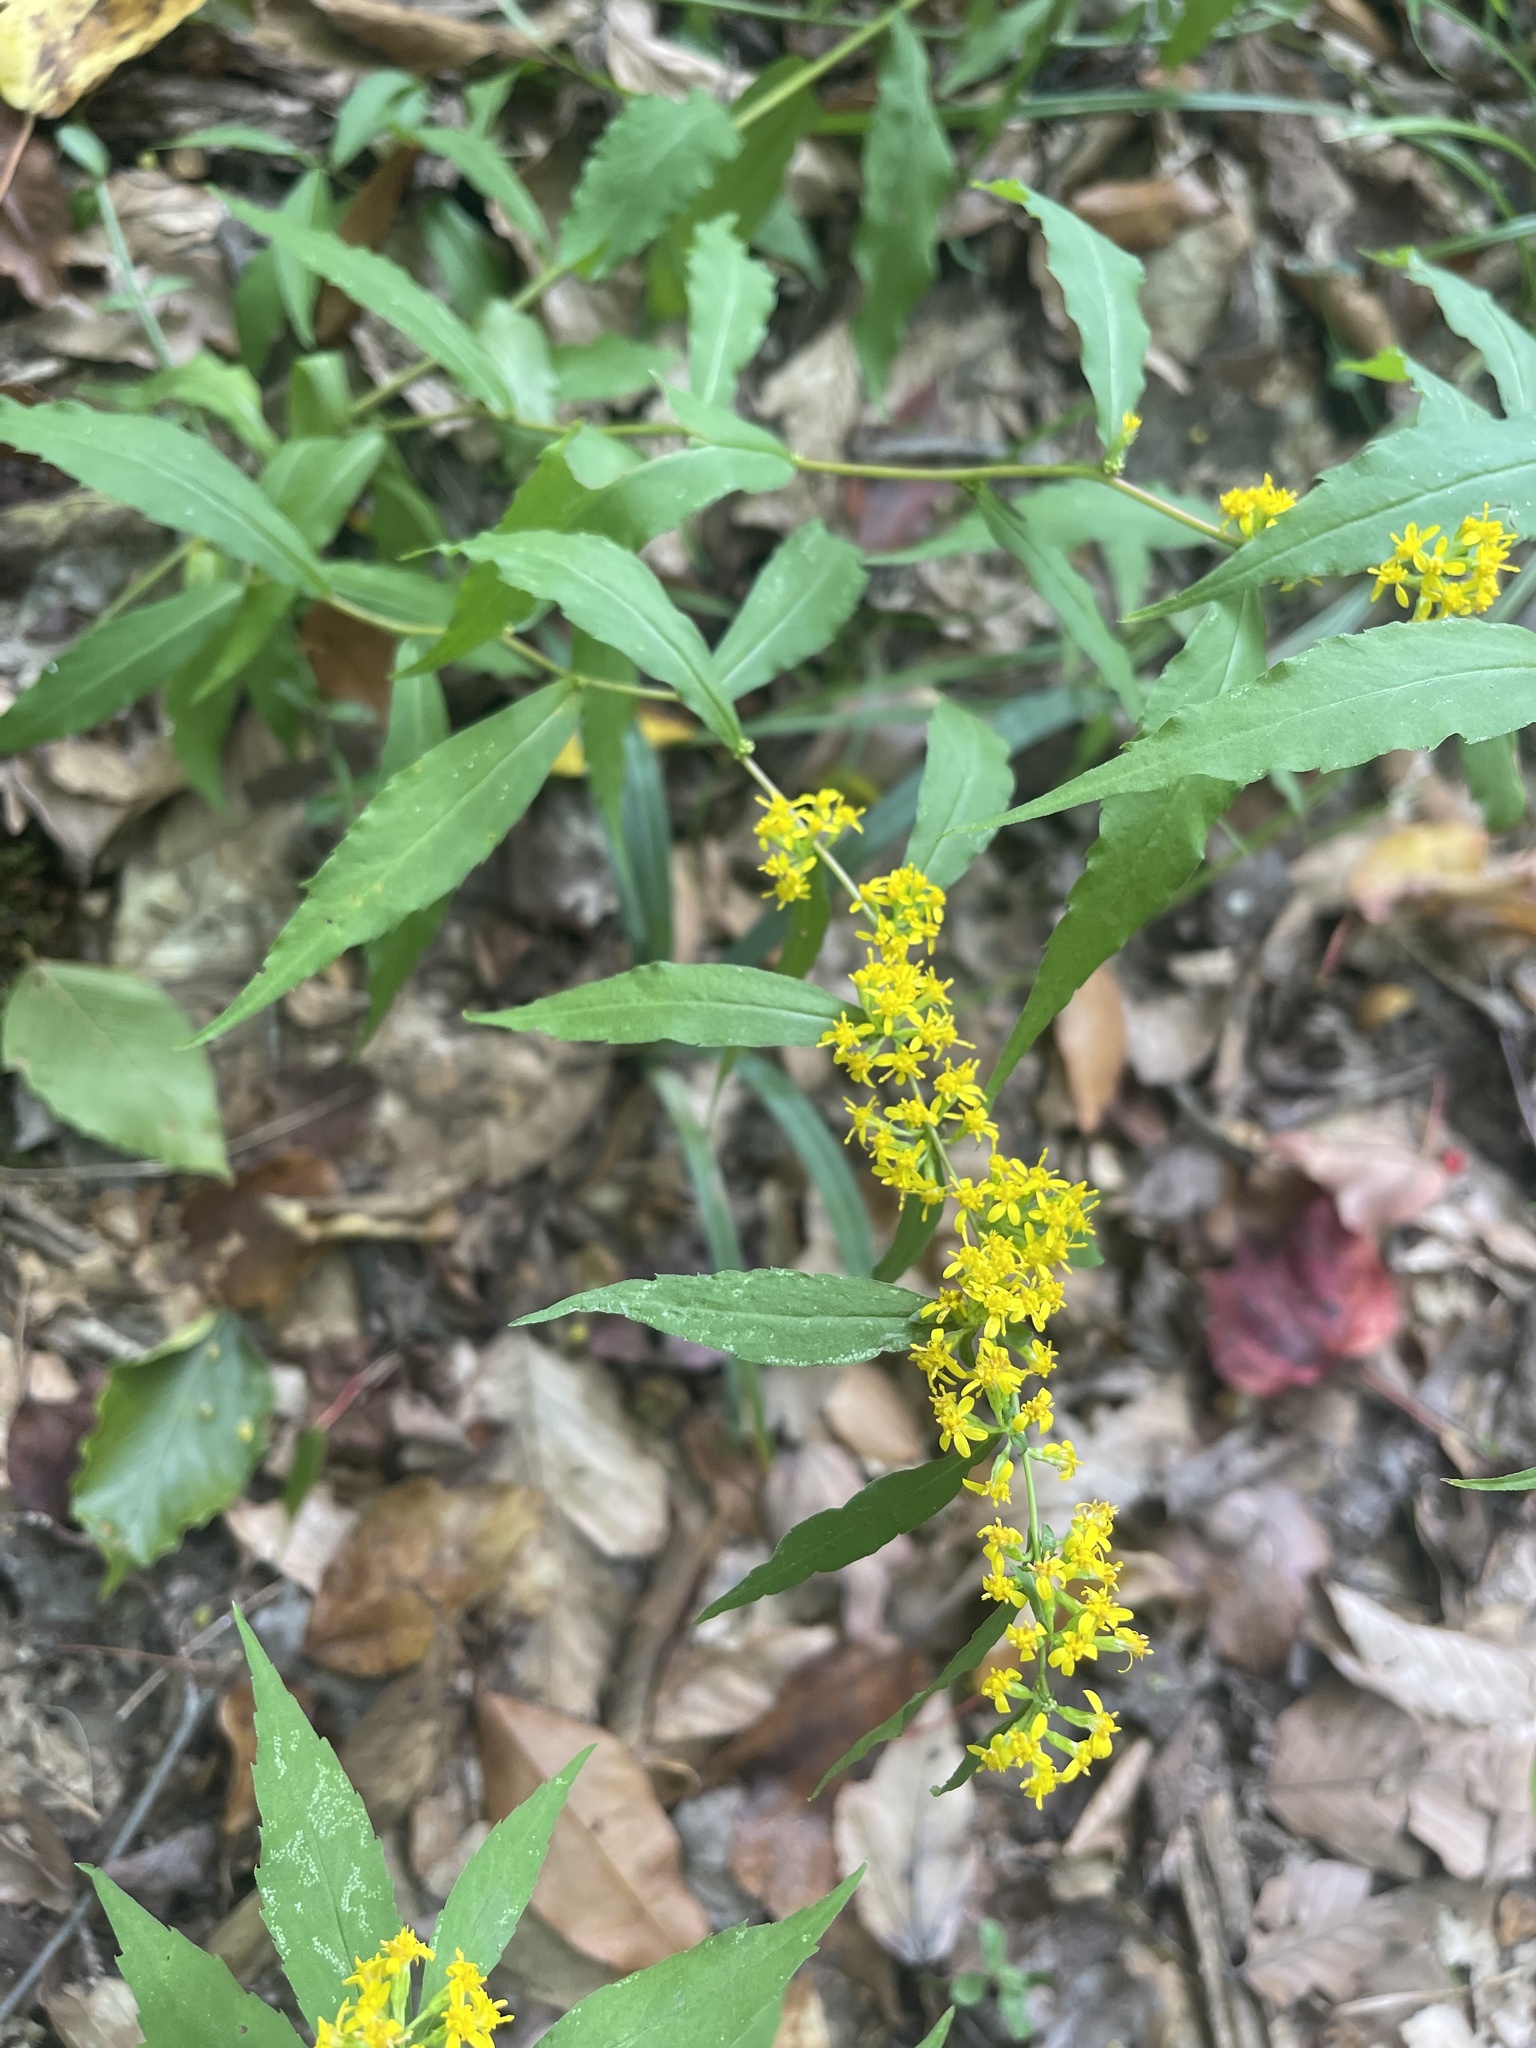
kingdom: Plantae
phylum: Tracheophyta
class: Magnoliopsida
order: Asterales
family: Asteraceae
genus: Solidago
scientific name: Solidago caesia
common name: Woodland goldenrod
